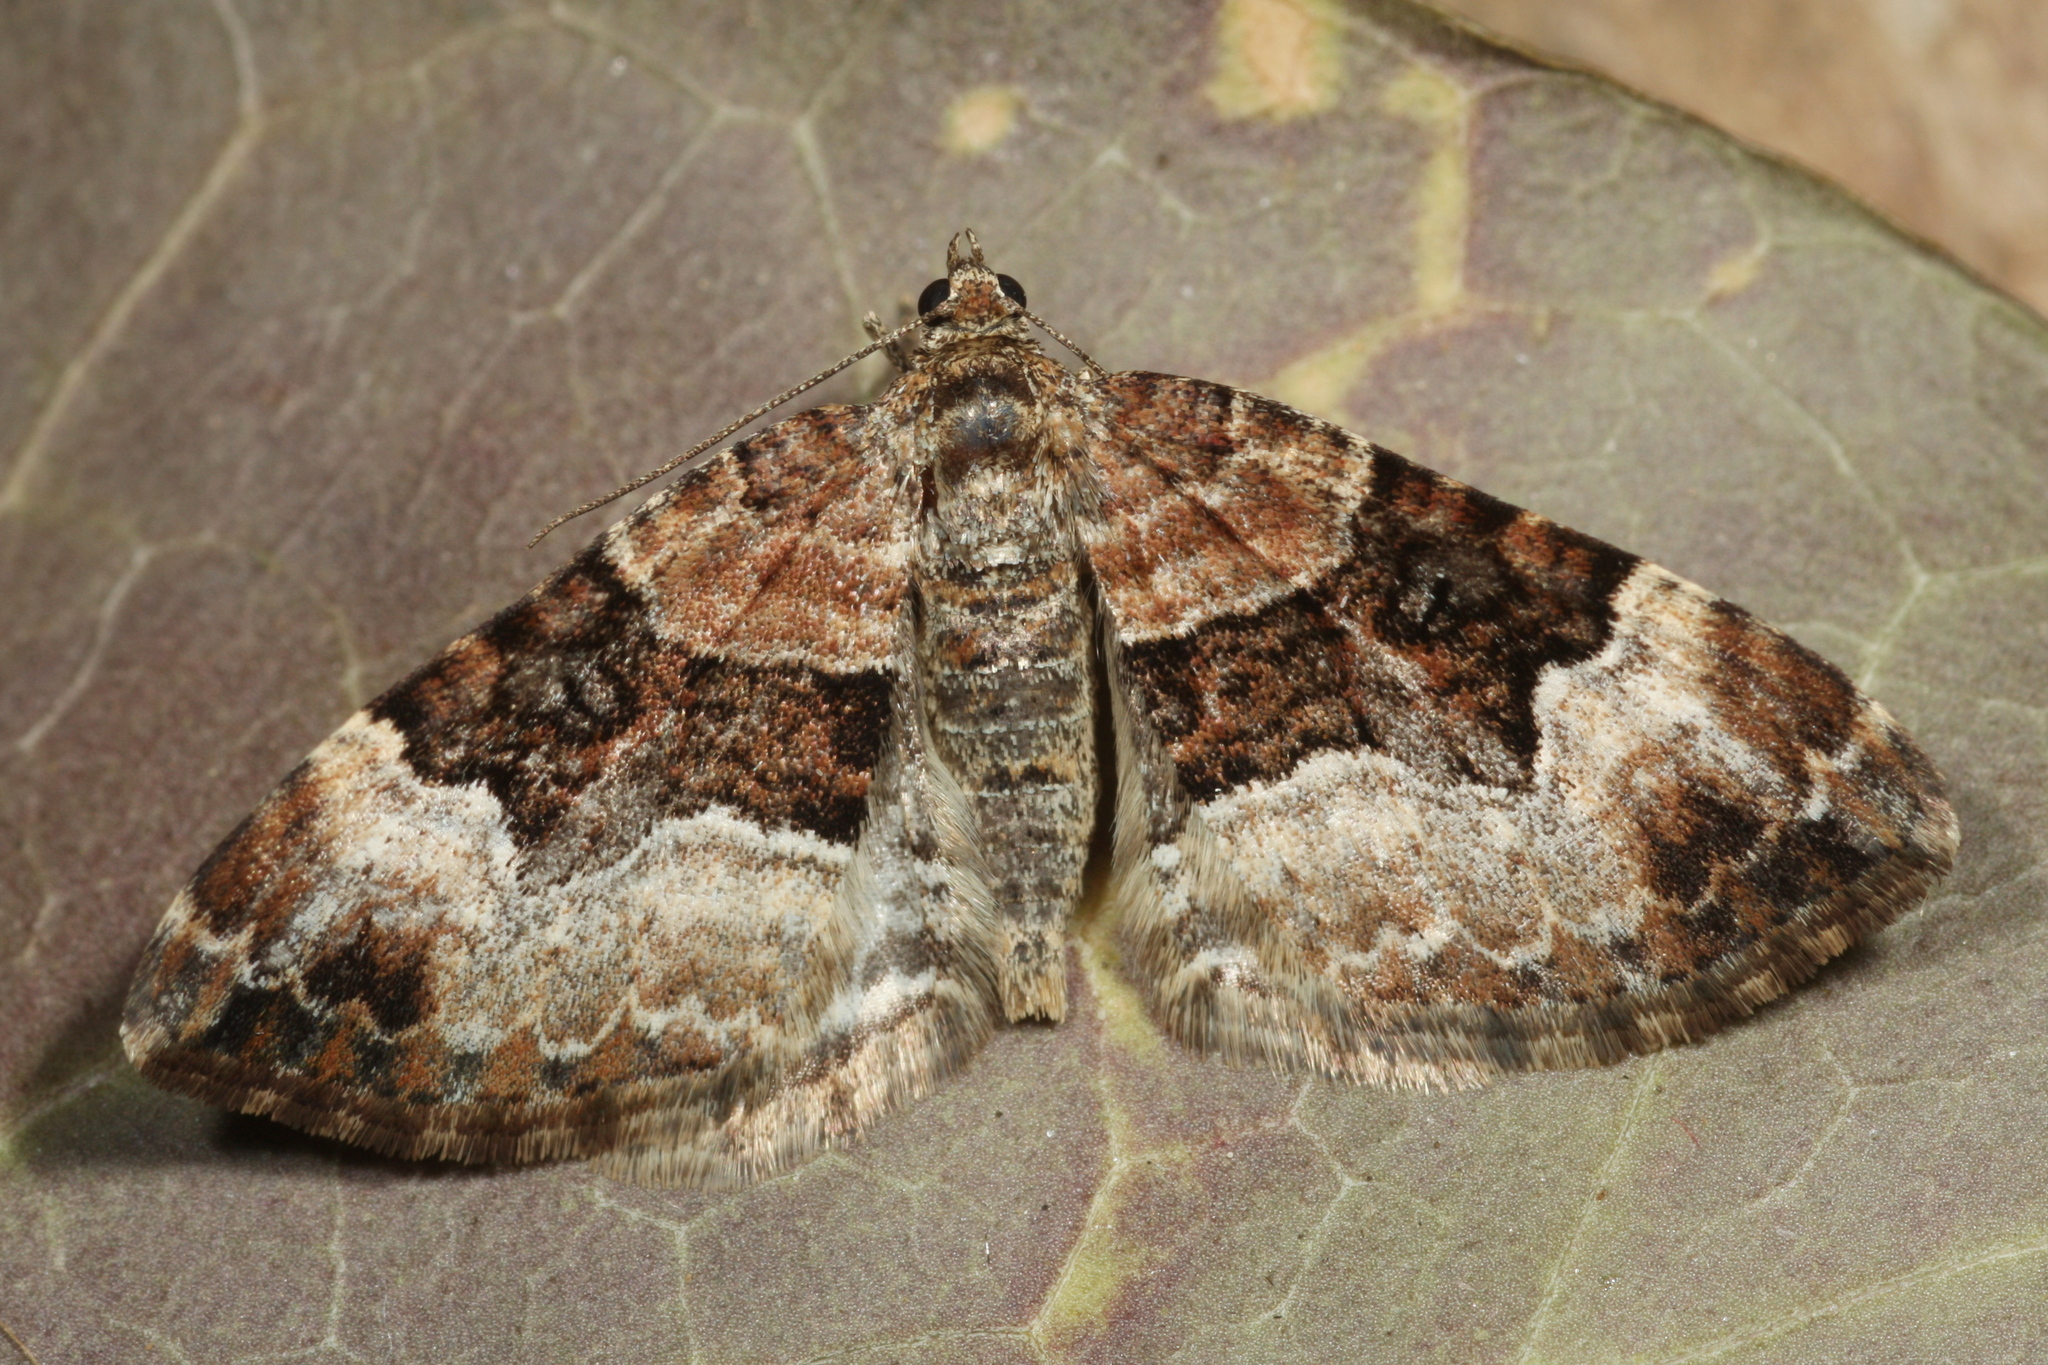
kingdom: Animalia
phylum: Arthropoda
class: Insecta
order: Lepidoptera
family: Geometridae
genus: Xanthorhoe
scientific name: Xanthorhoe biriviata
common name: Balsam carpet
